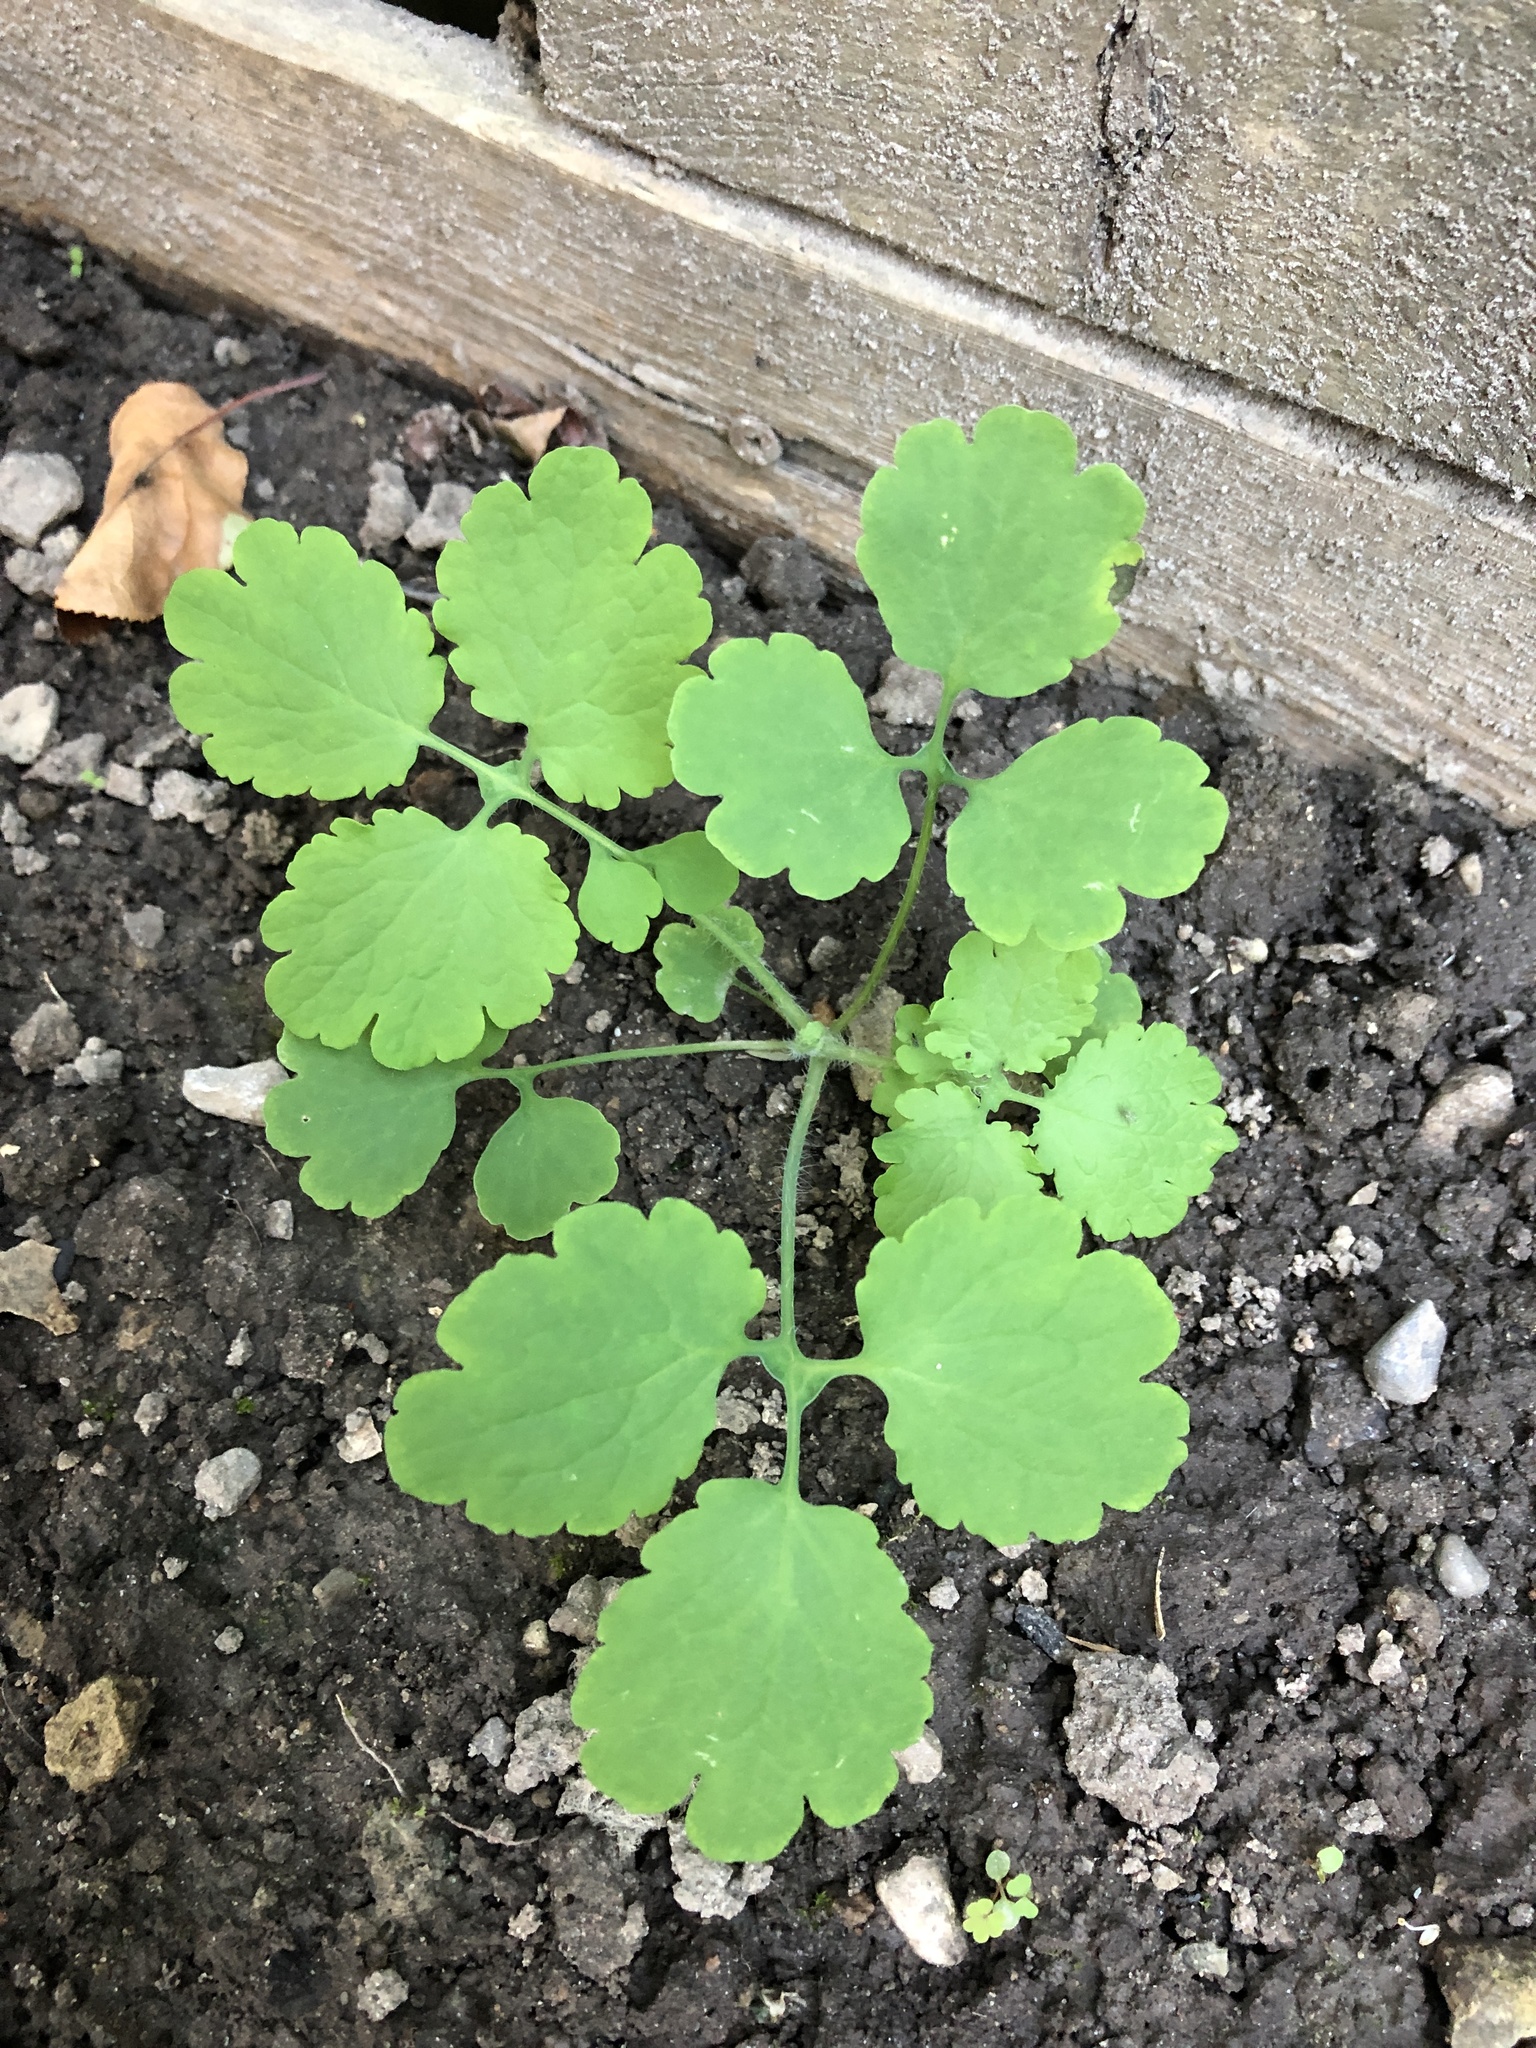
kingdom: Plantae
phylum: Tracheophyta
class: Magnoliopsida
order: Ranunculales
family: Papaveraceae
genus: Chelidonium
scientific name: Chelidonium majus
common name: Greater celandine
